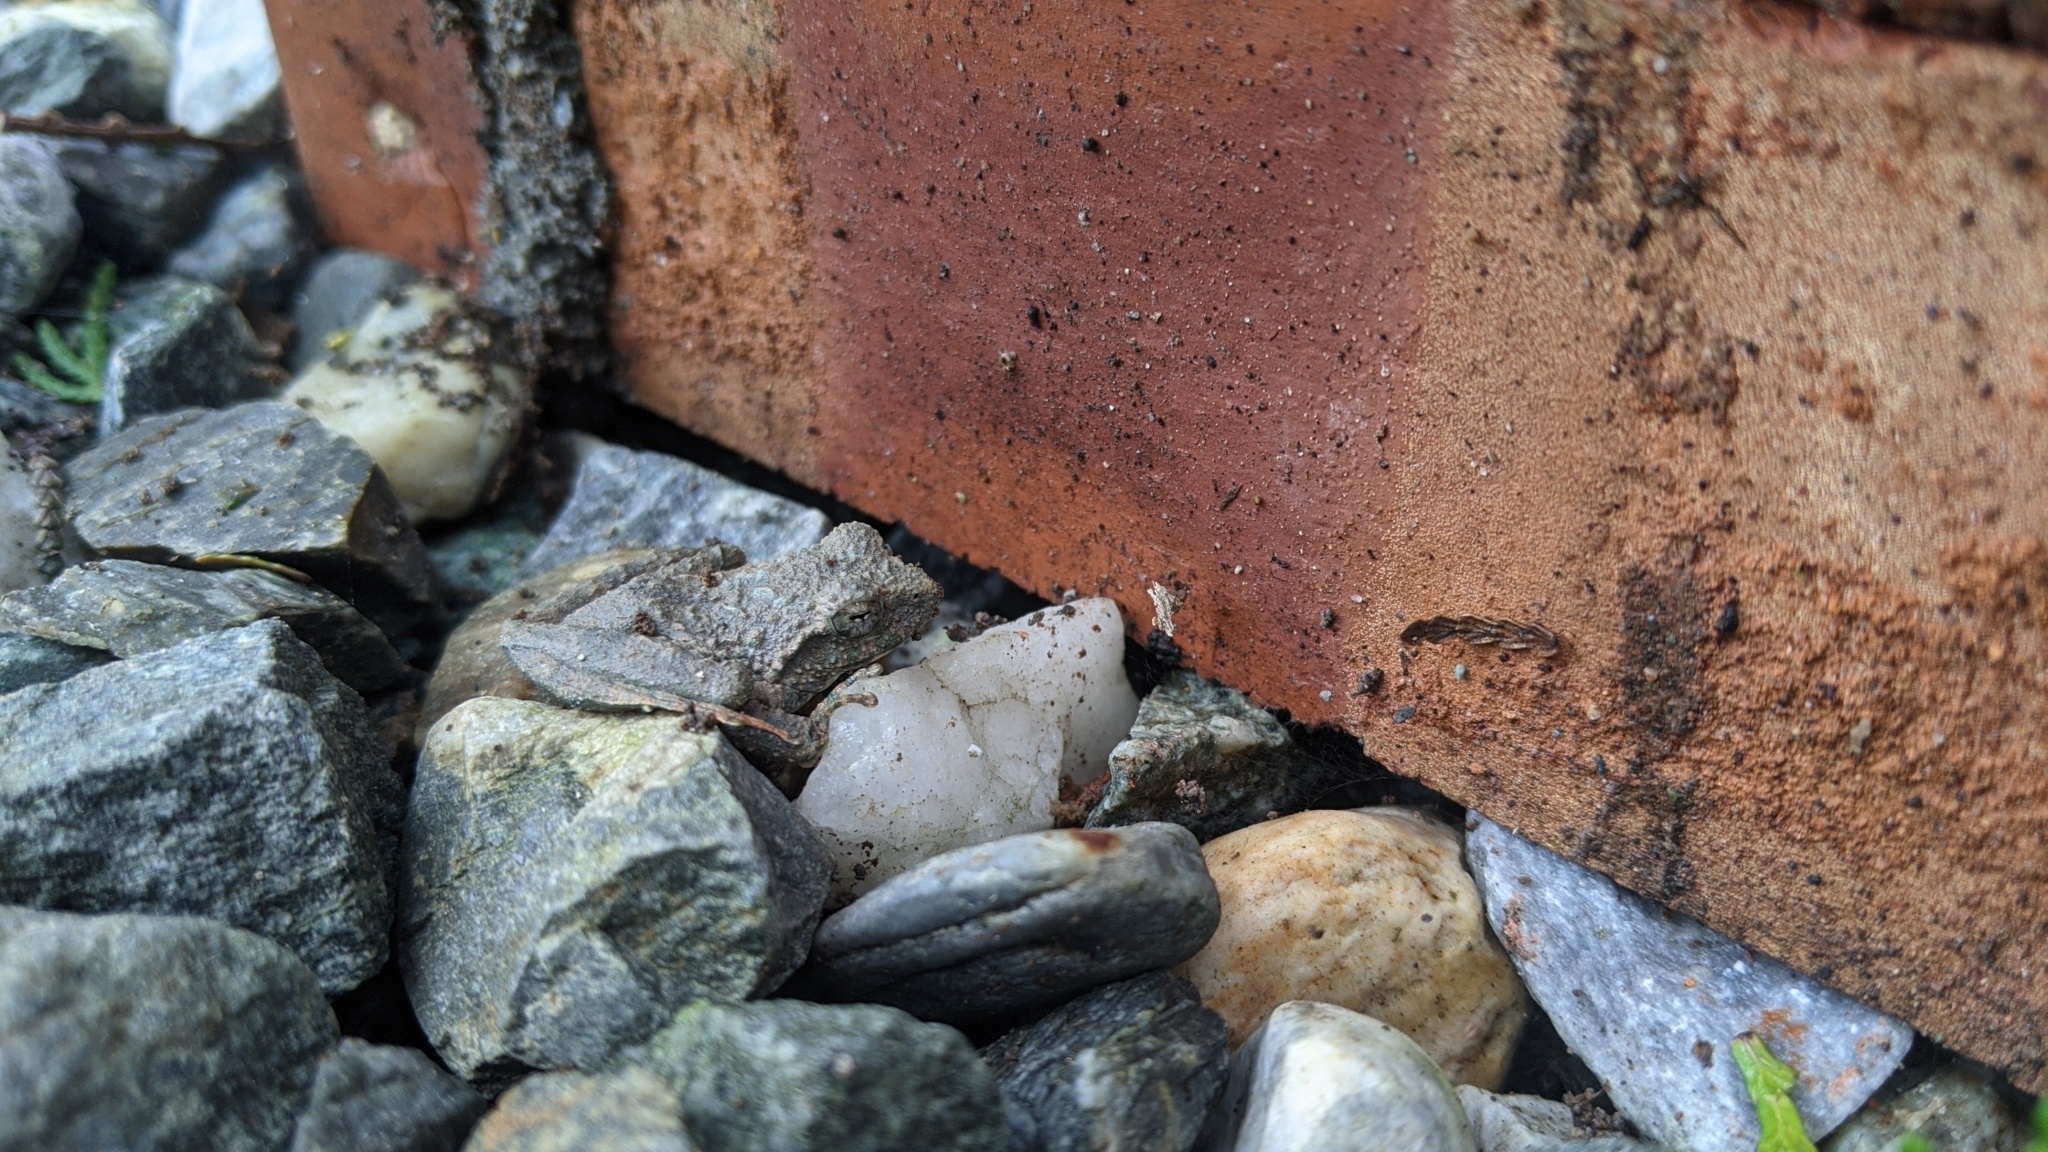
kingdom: Animalia
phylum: Chordata
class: Amphibia
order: Anura
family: Rhacophoridae
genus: Buergeria
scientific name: Buergeria otai
